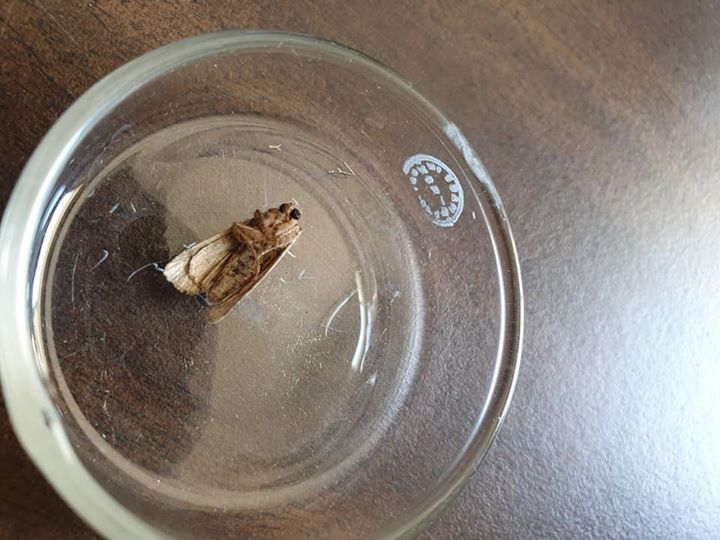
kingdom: Animalia
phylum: Arthropoda
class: Insecta
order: Lepidoptera
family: Noctuidae
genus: Ichneutica
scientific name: Ichneutica mutans
